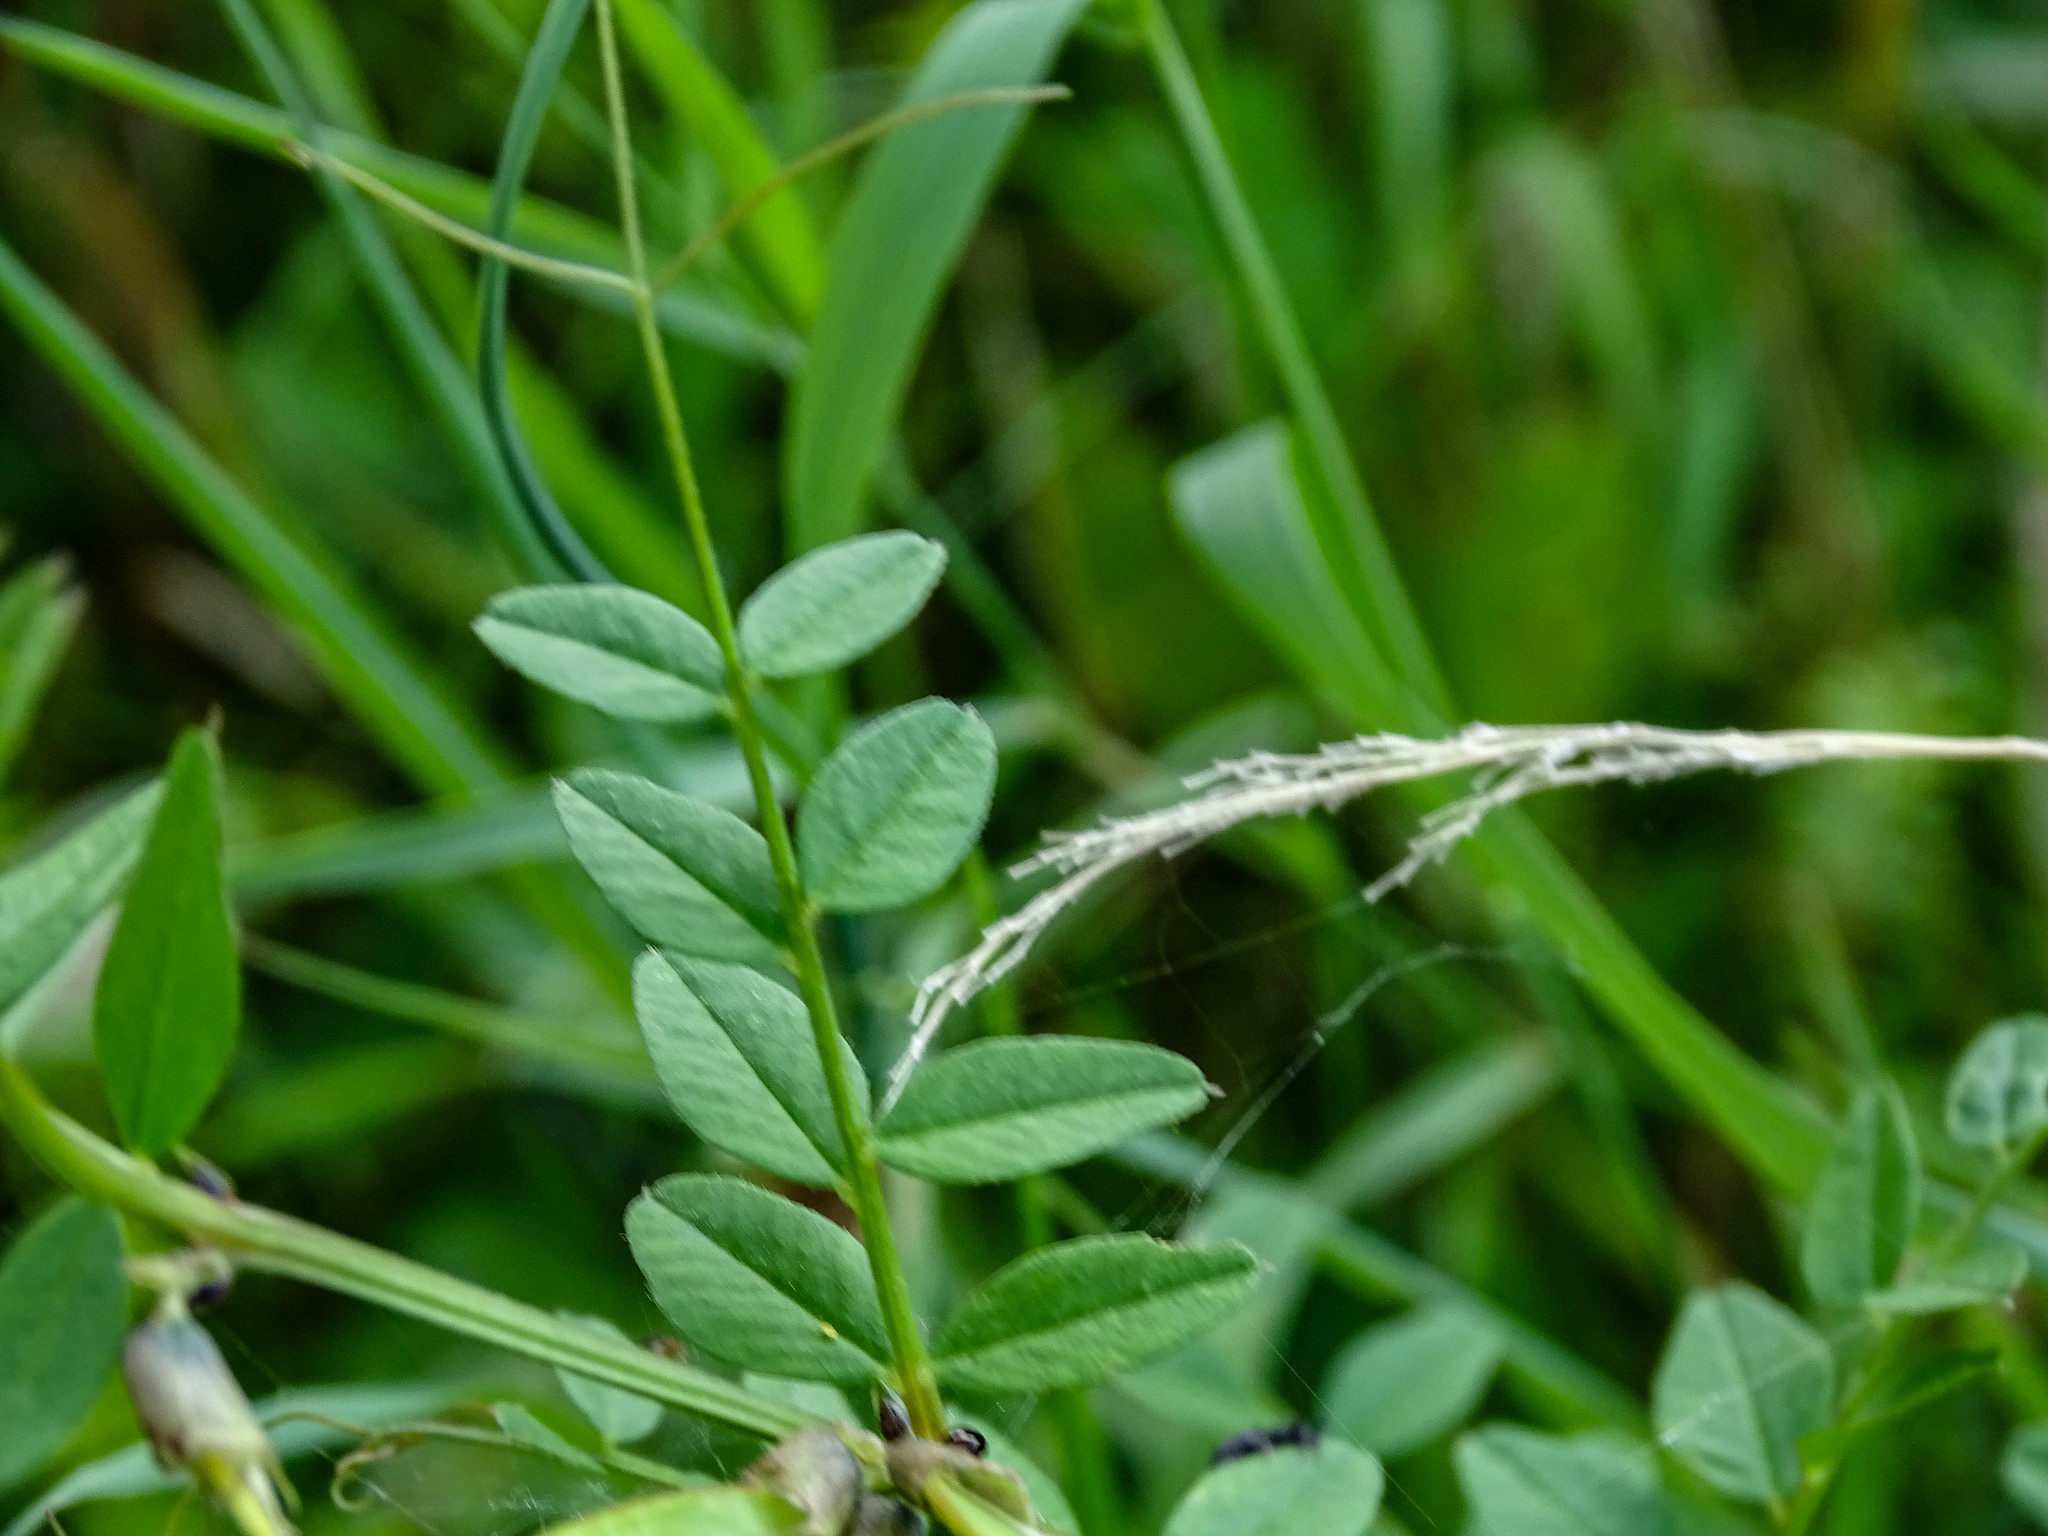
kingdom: Plantae
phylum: Tracheophyta
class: Magnoliopsida
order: Fabales
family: Fabaceae
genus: Vicia
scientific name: Vicia sepium
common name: Bush vetch
